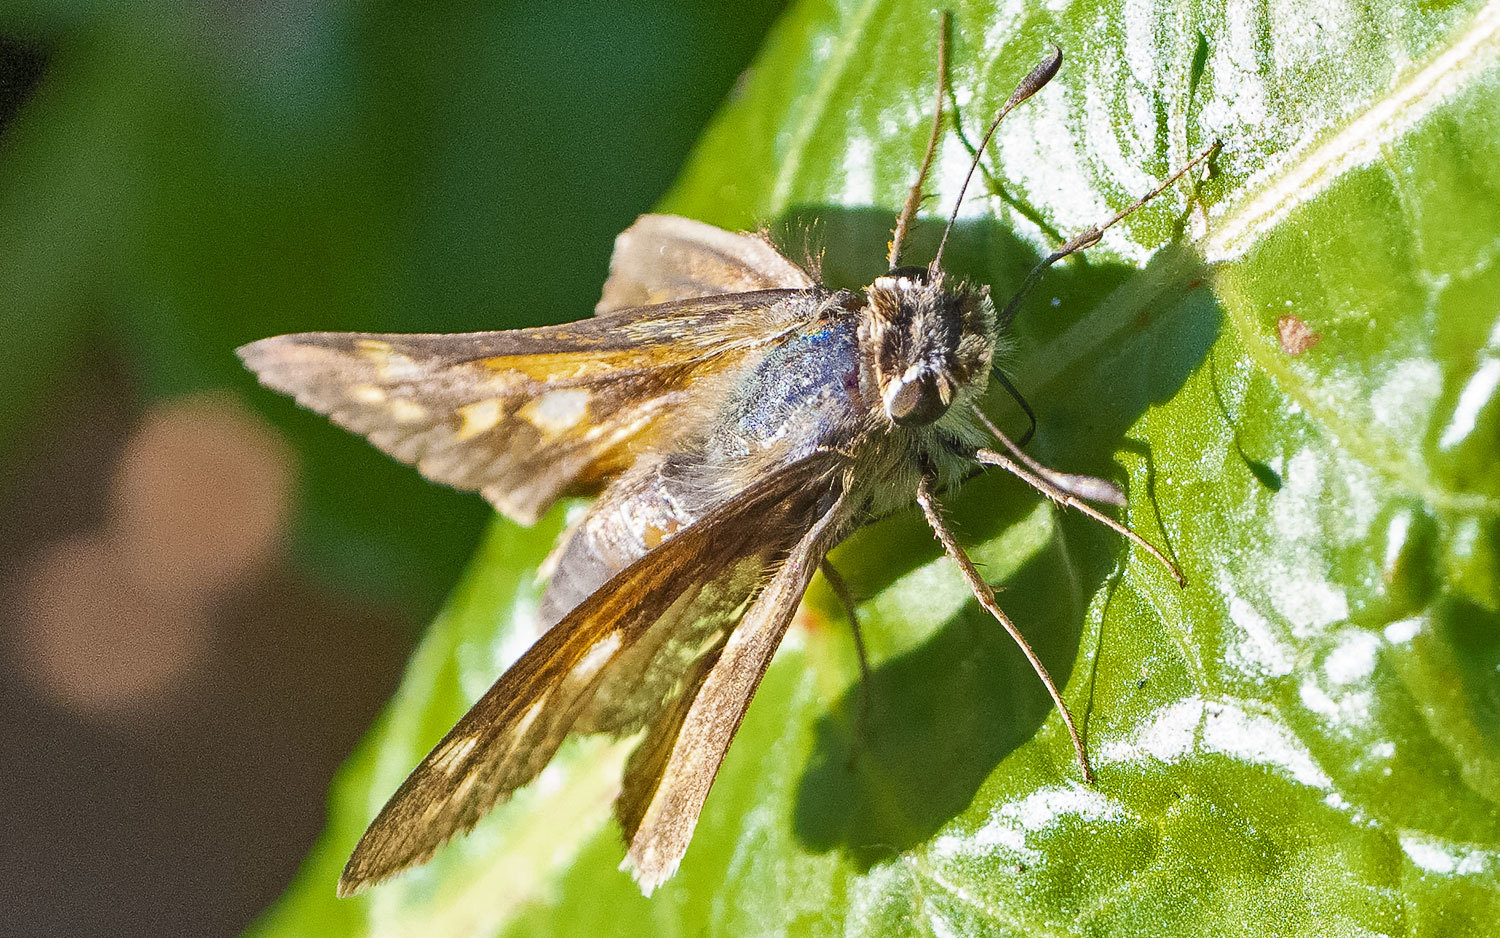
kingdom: Animalia
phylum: Arthropoda
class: Insecta
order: Lepidoptera
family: Hesperiidae
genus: Atalopedes
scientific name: Atalopedes
